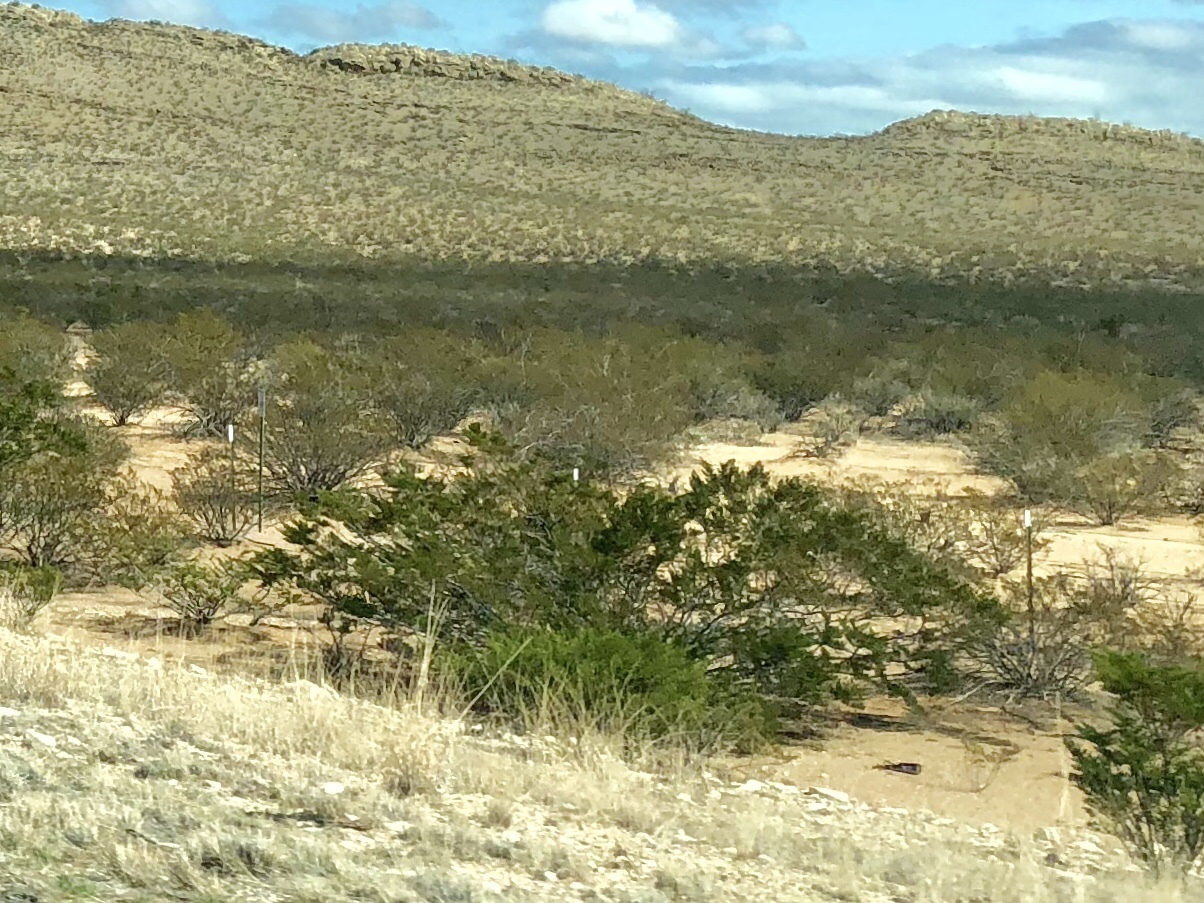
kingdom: Plantae
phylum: Tracheophyta
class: Magnoliopsida
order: Zygophyllales
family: Zygophyllaceae
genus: Larrea
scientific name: Larrea tridentata
